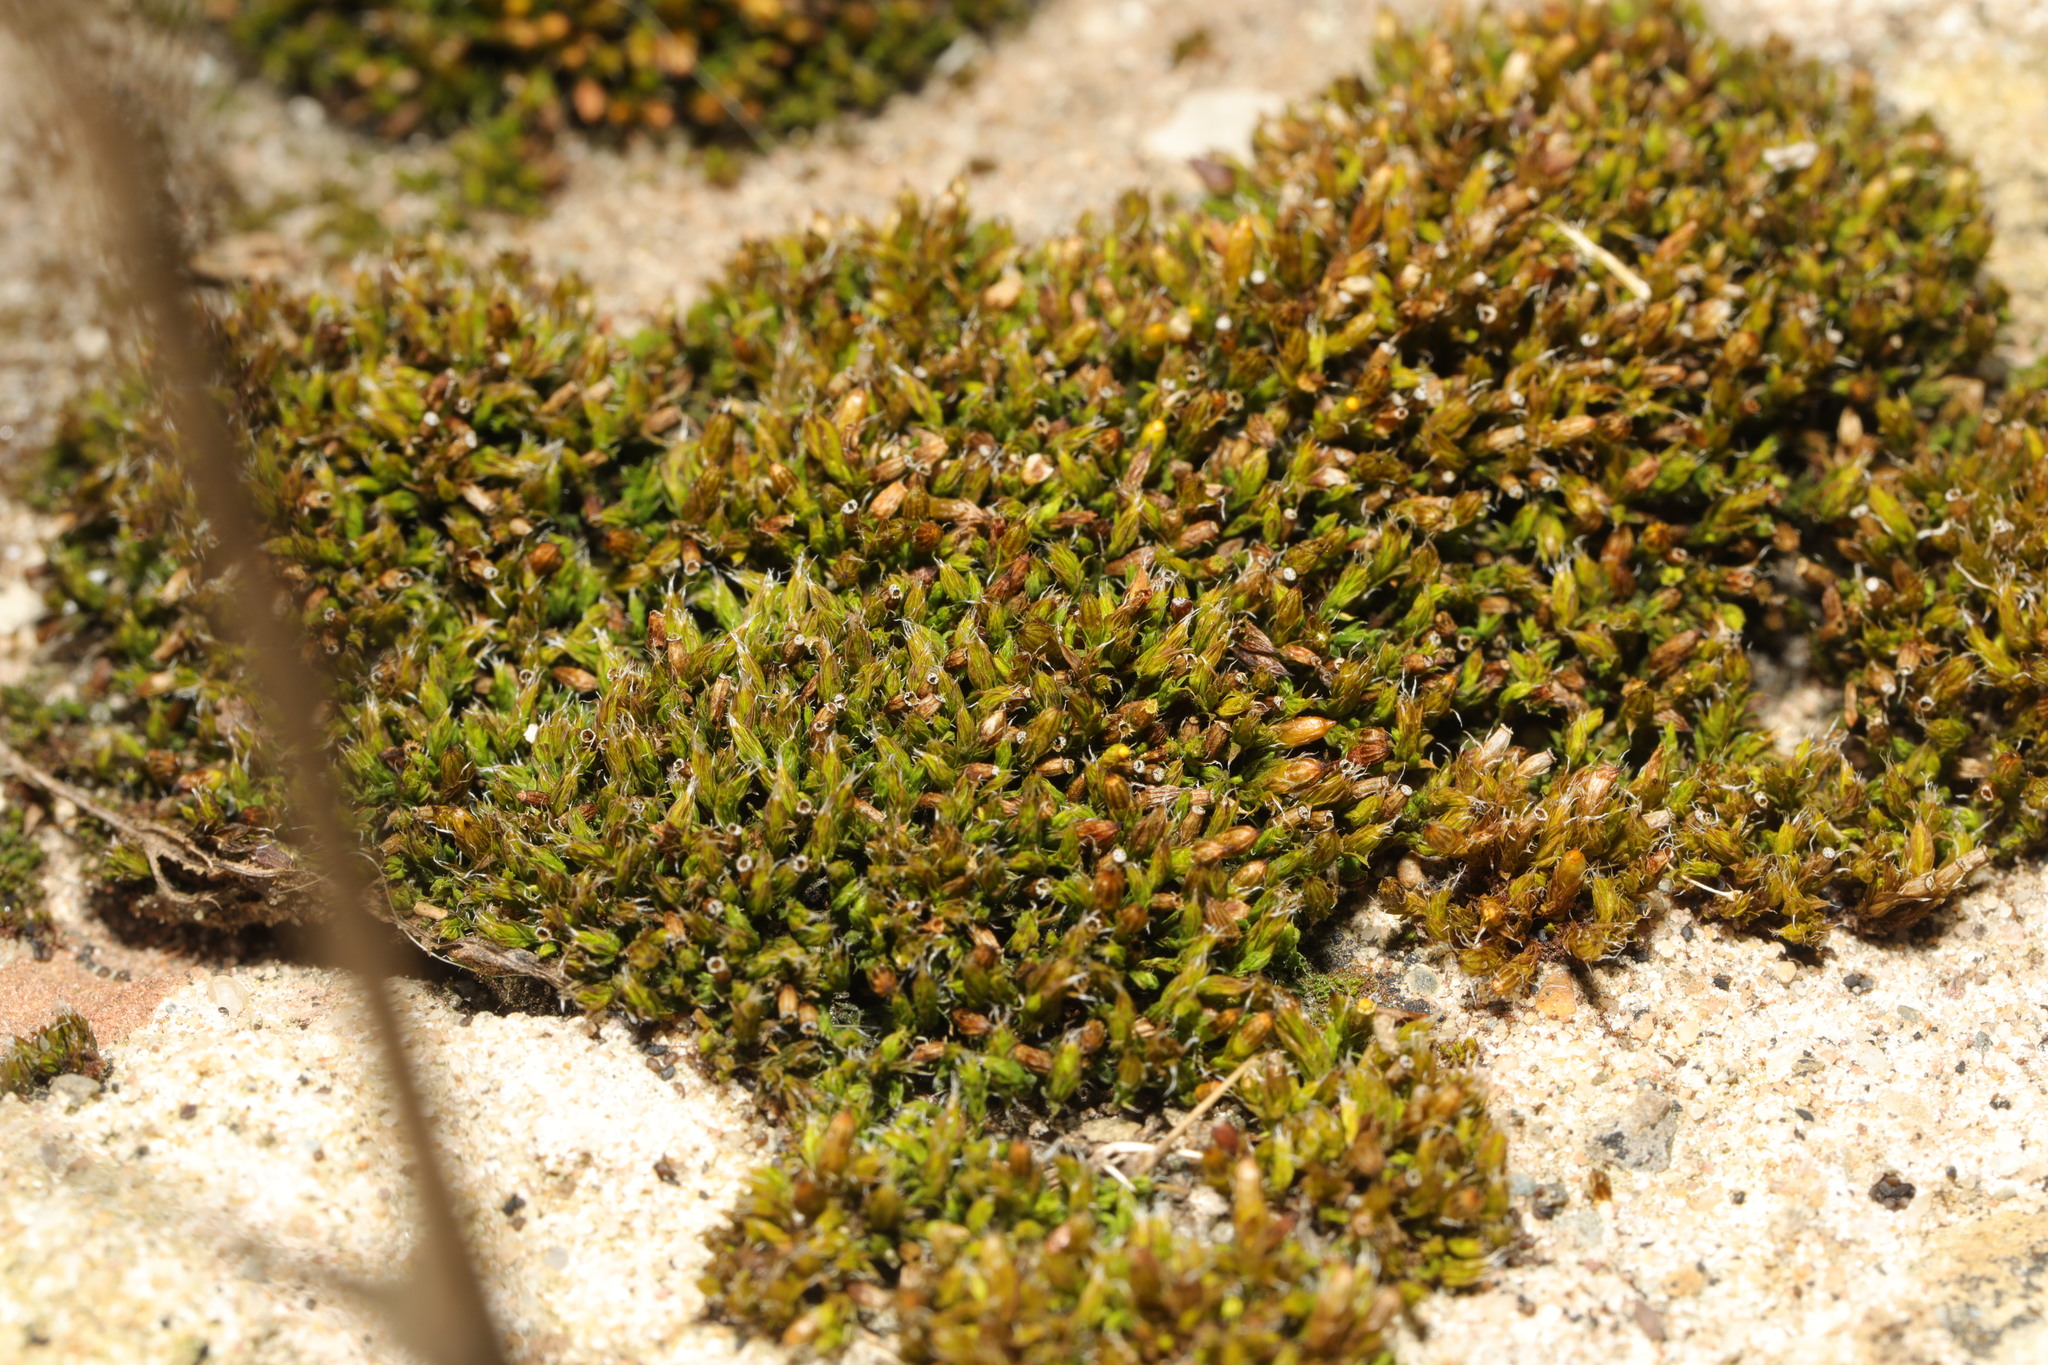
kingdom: Plantae
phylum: Bryophyta
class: Bryopsida
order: Orthotrichales
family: Orthotrichaceae
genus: Orthotrichum
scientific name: Orthotrichum diaphanum
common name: White-tipped bristle-moss
